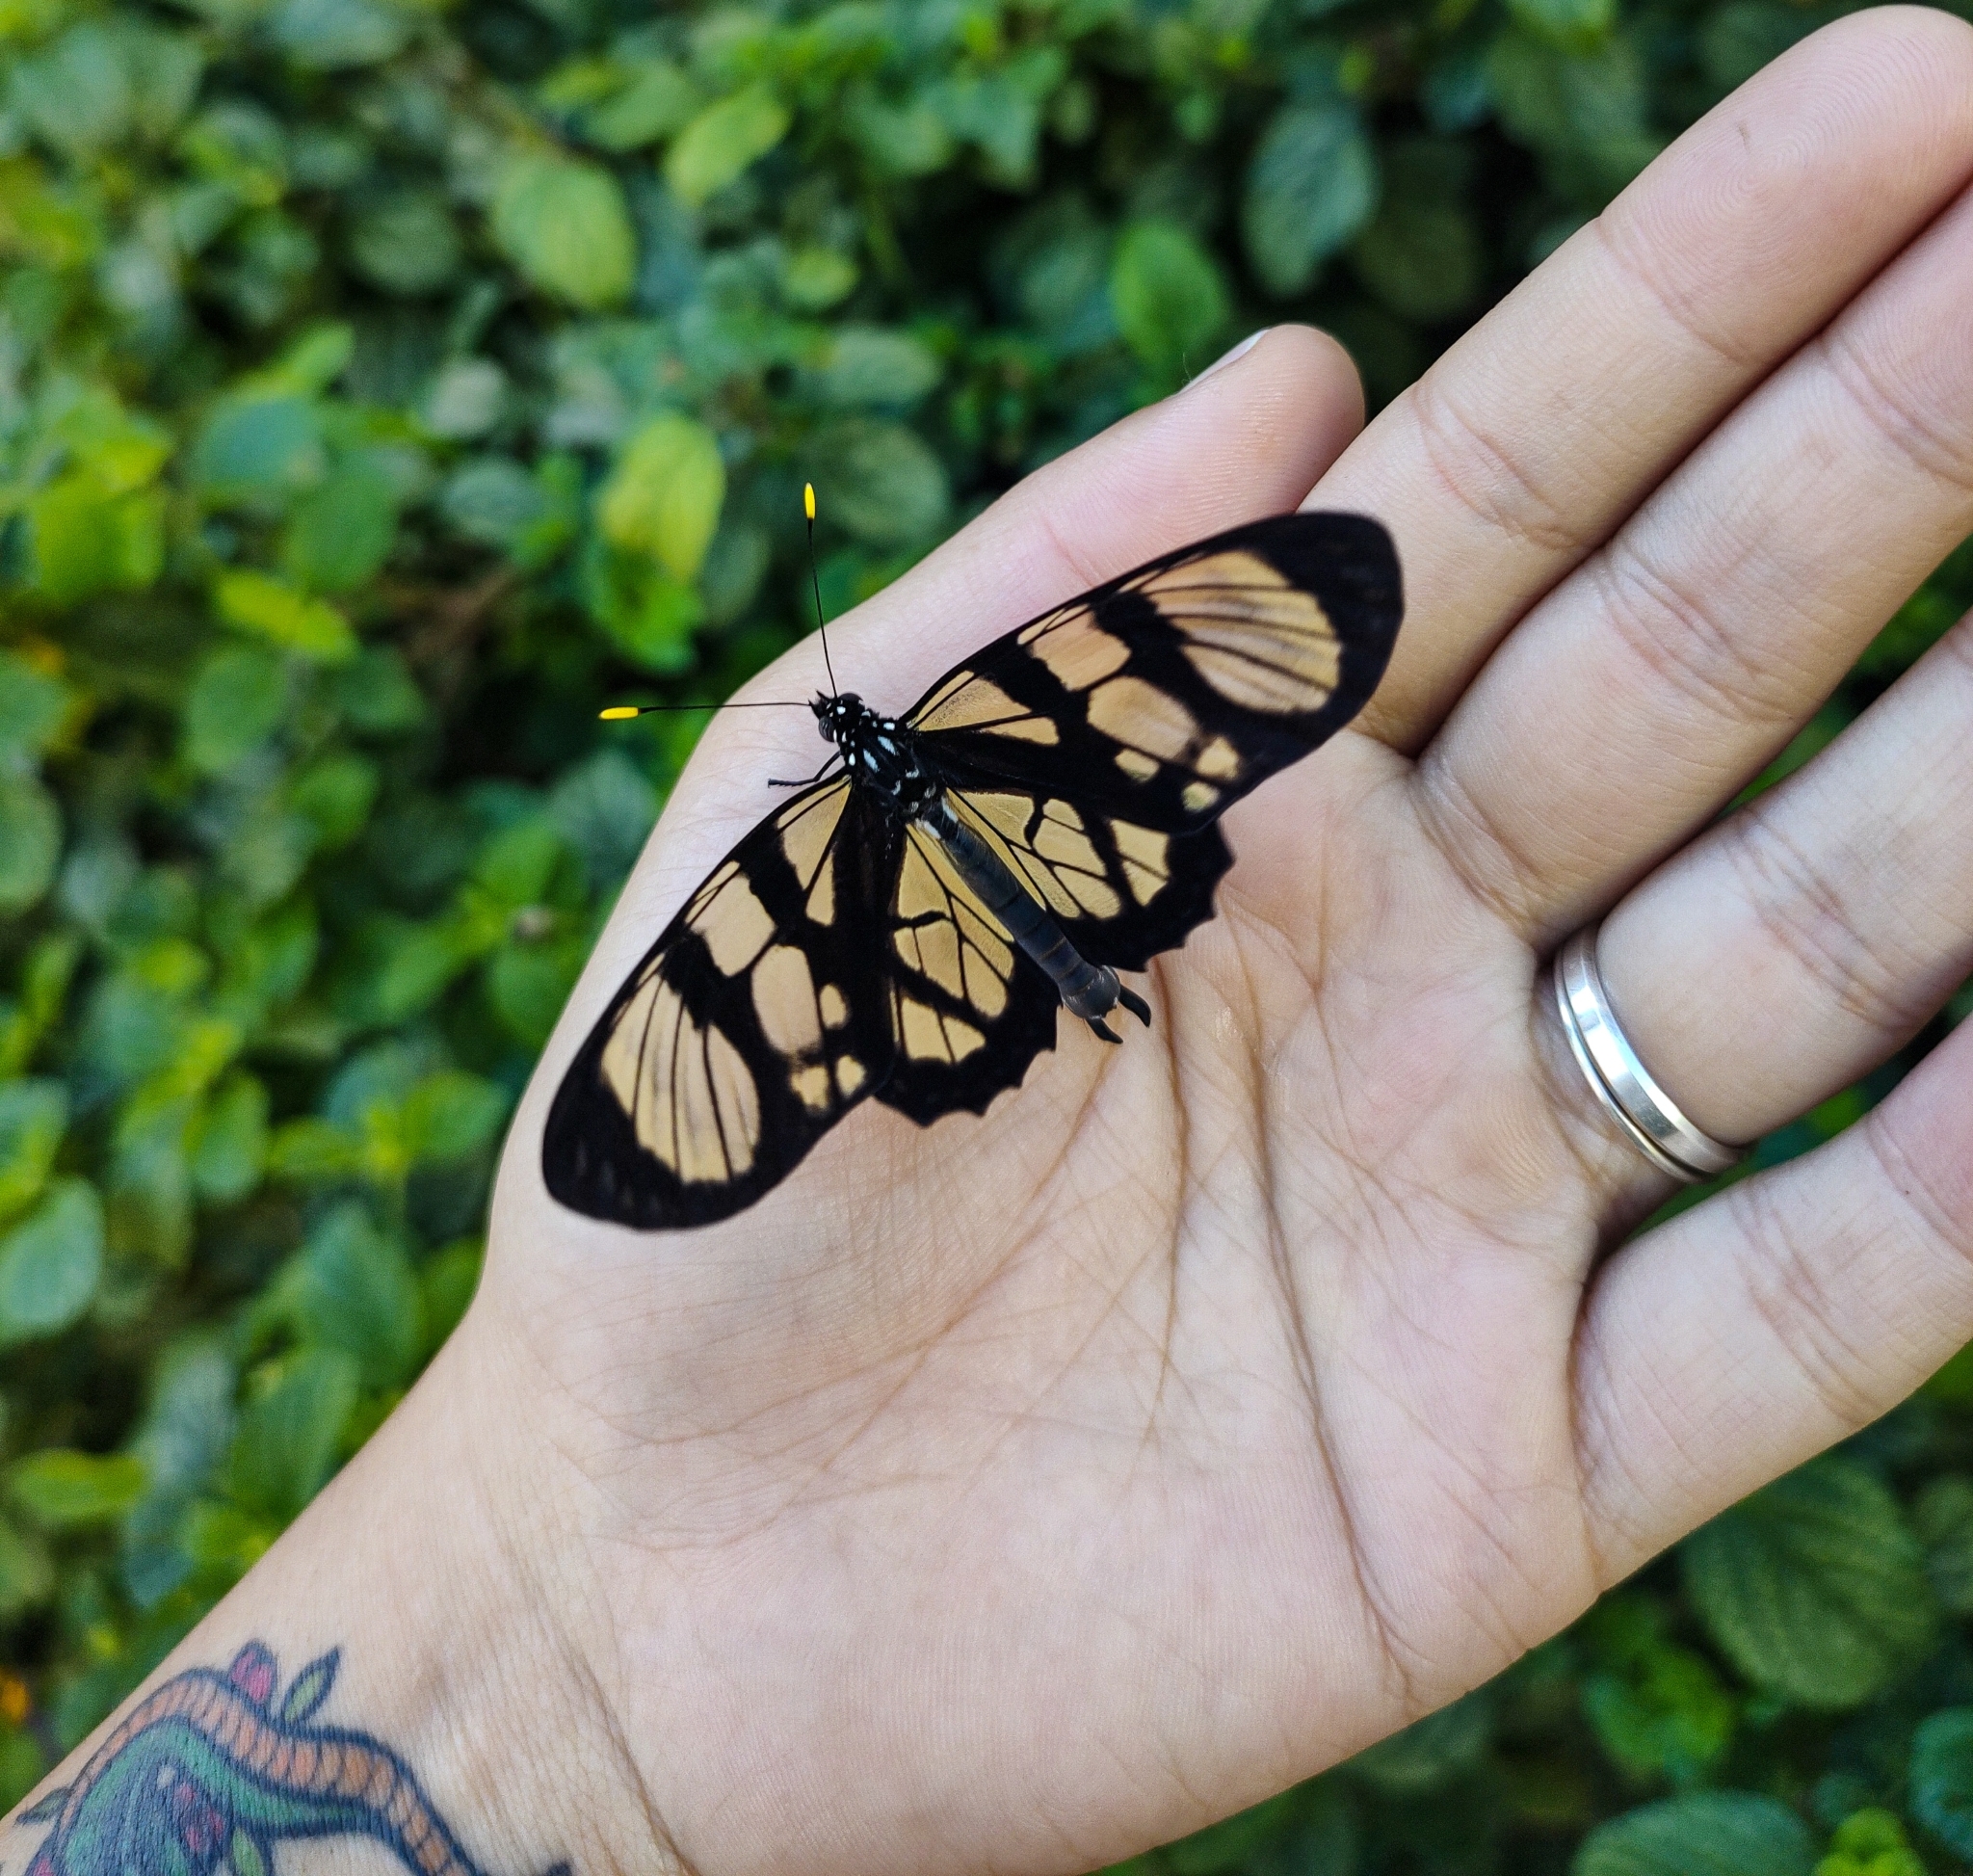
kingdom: Animalia
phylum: Arthropoda
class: Insecta
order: Lepidoptera
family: Nymphalidae
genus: Lycorea
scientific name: Lycorea ilione
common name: Clearwing mimic-queen
